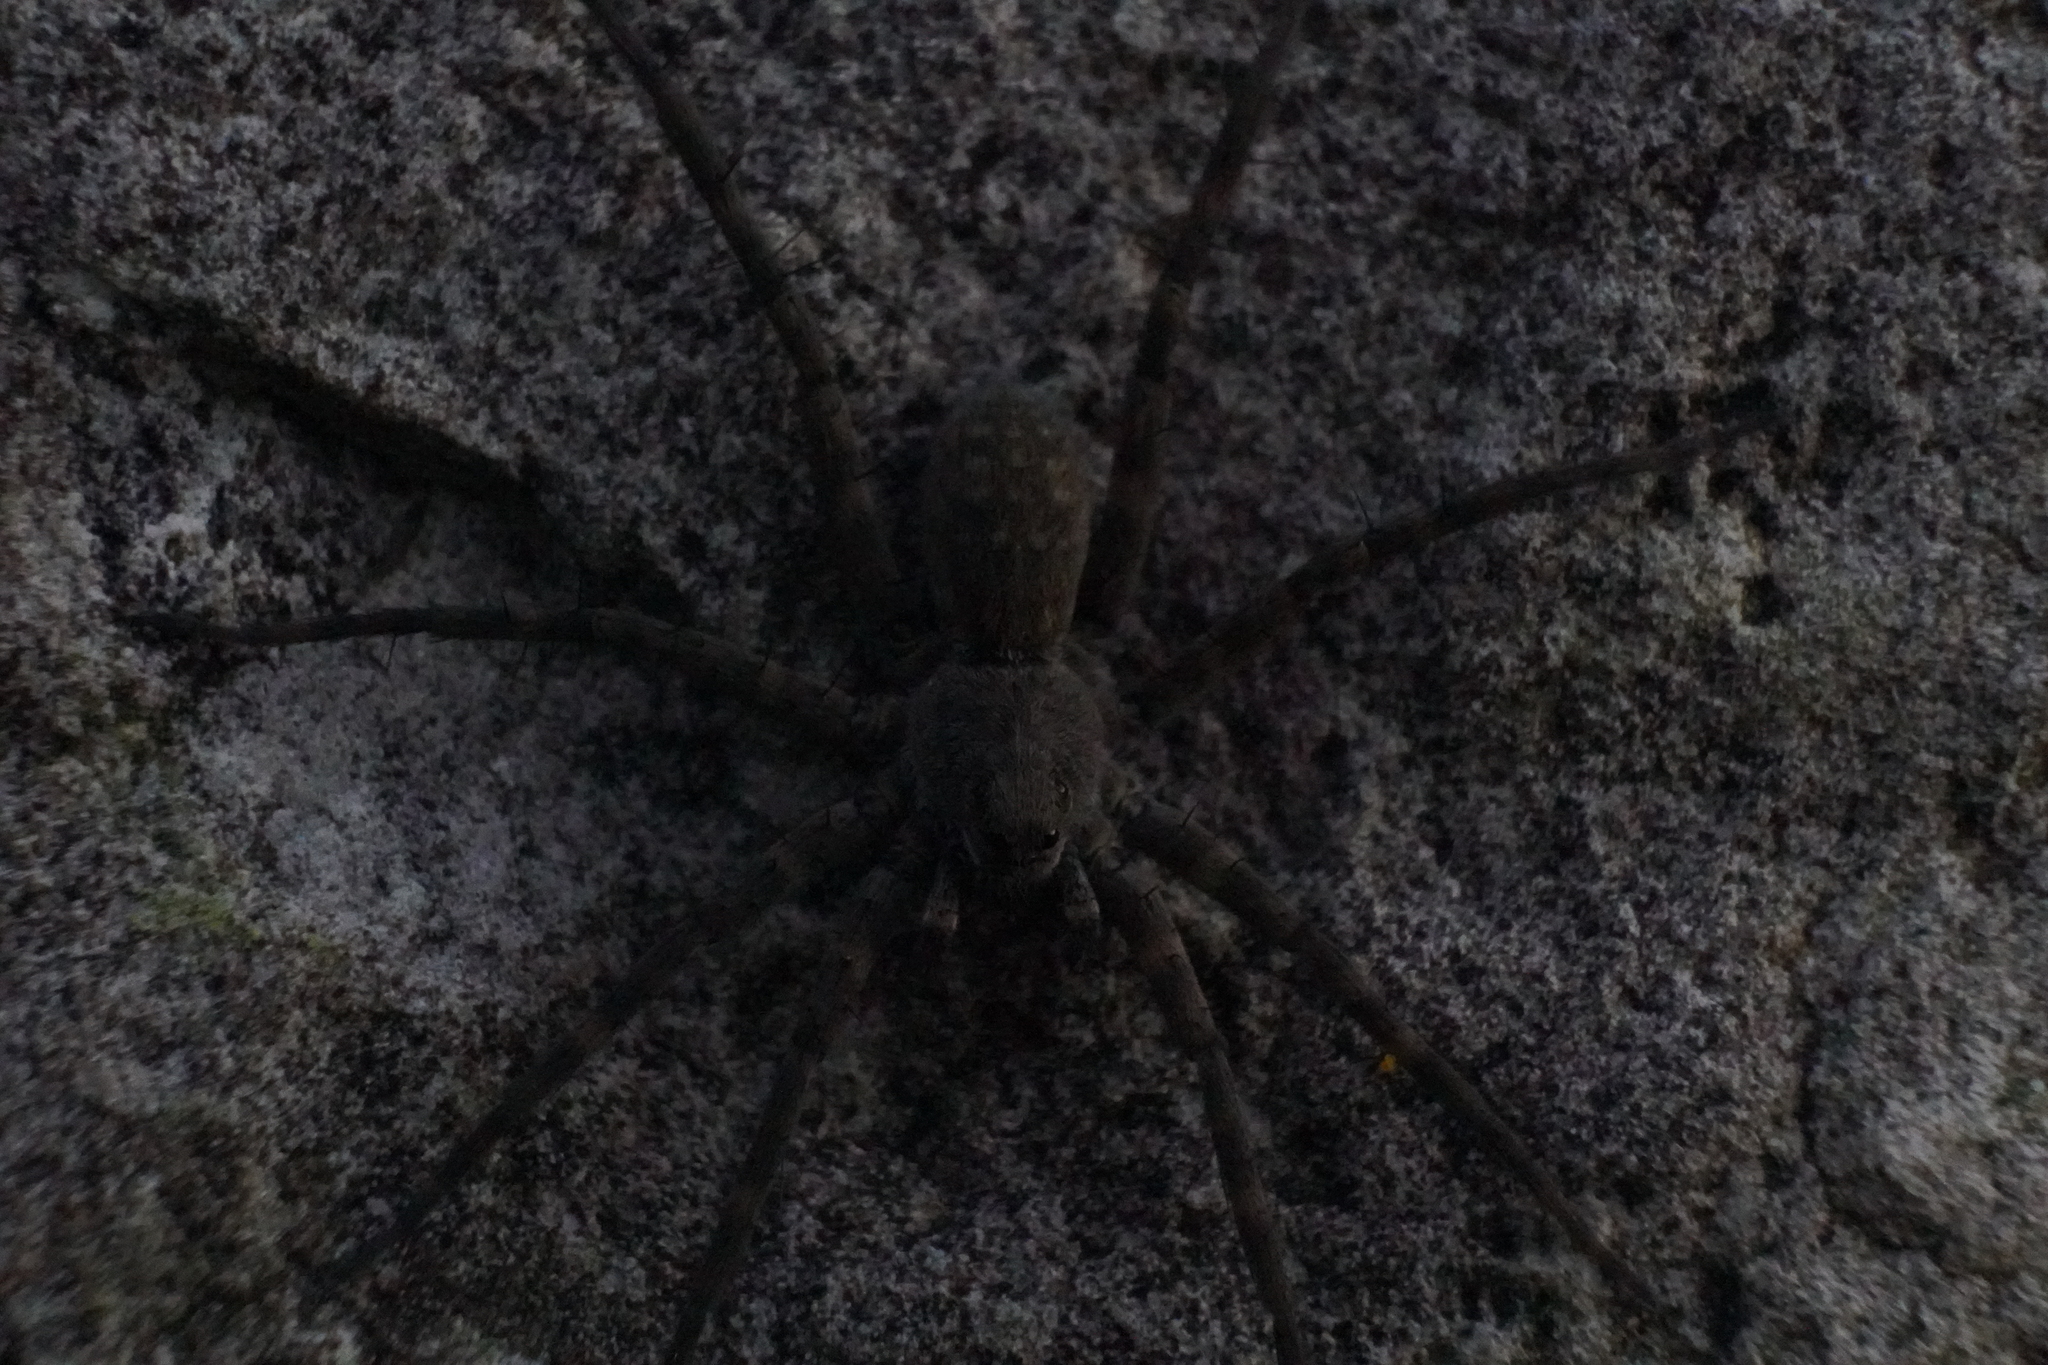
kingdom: Animalia
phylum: Arthropoda
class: Arachnida
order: Araneae
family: Lycosidae
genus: Pardosa
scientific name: Pardosa lapidicina
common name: Stone spider
